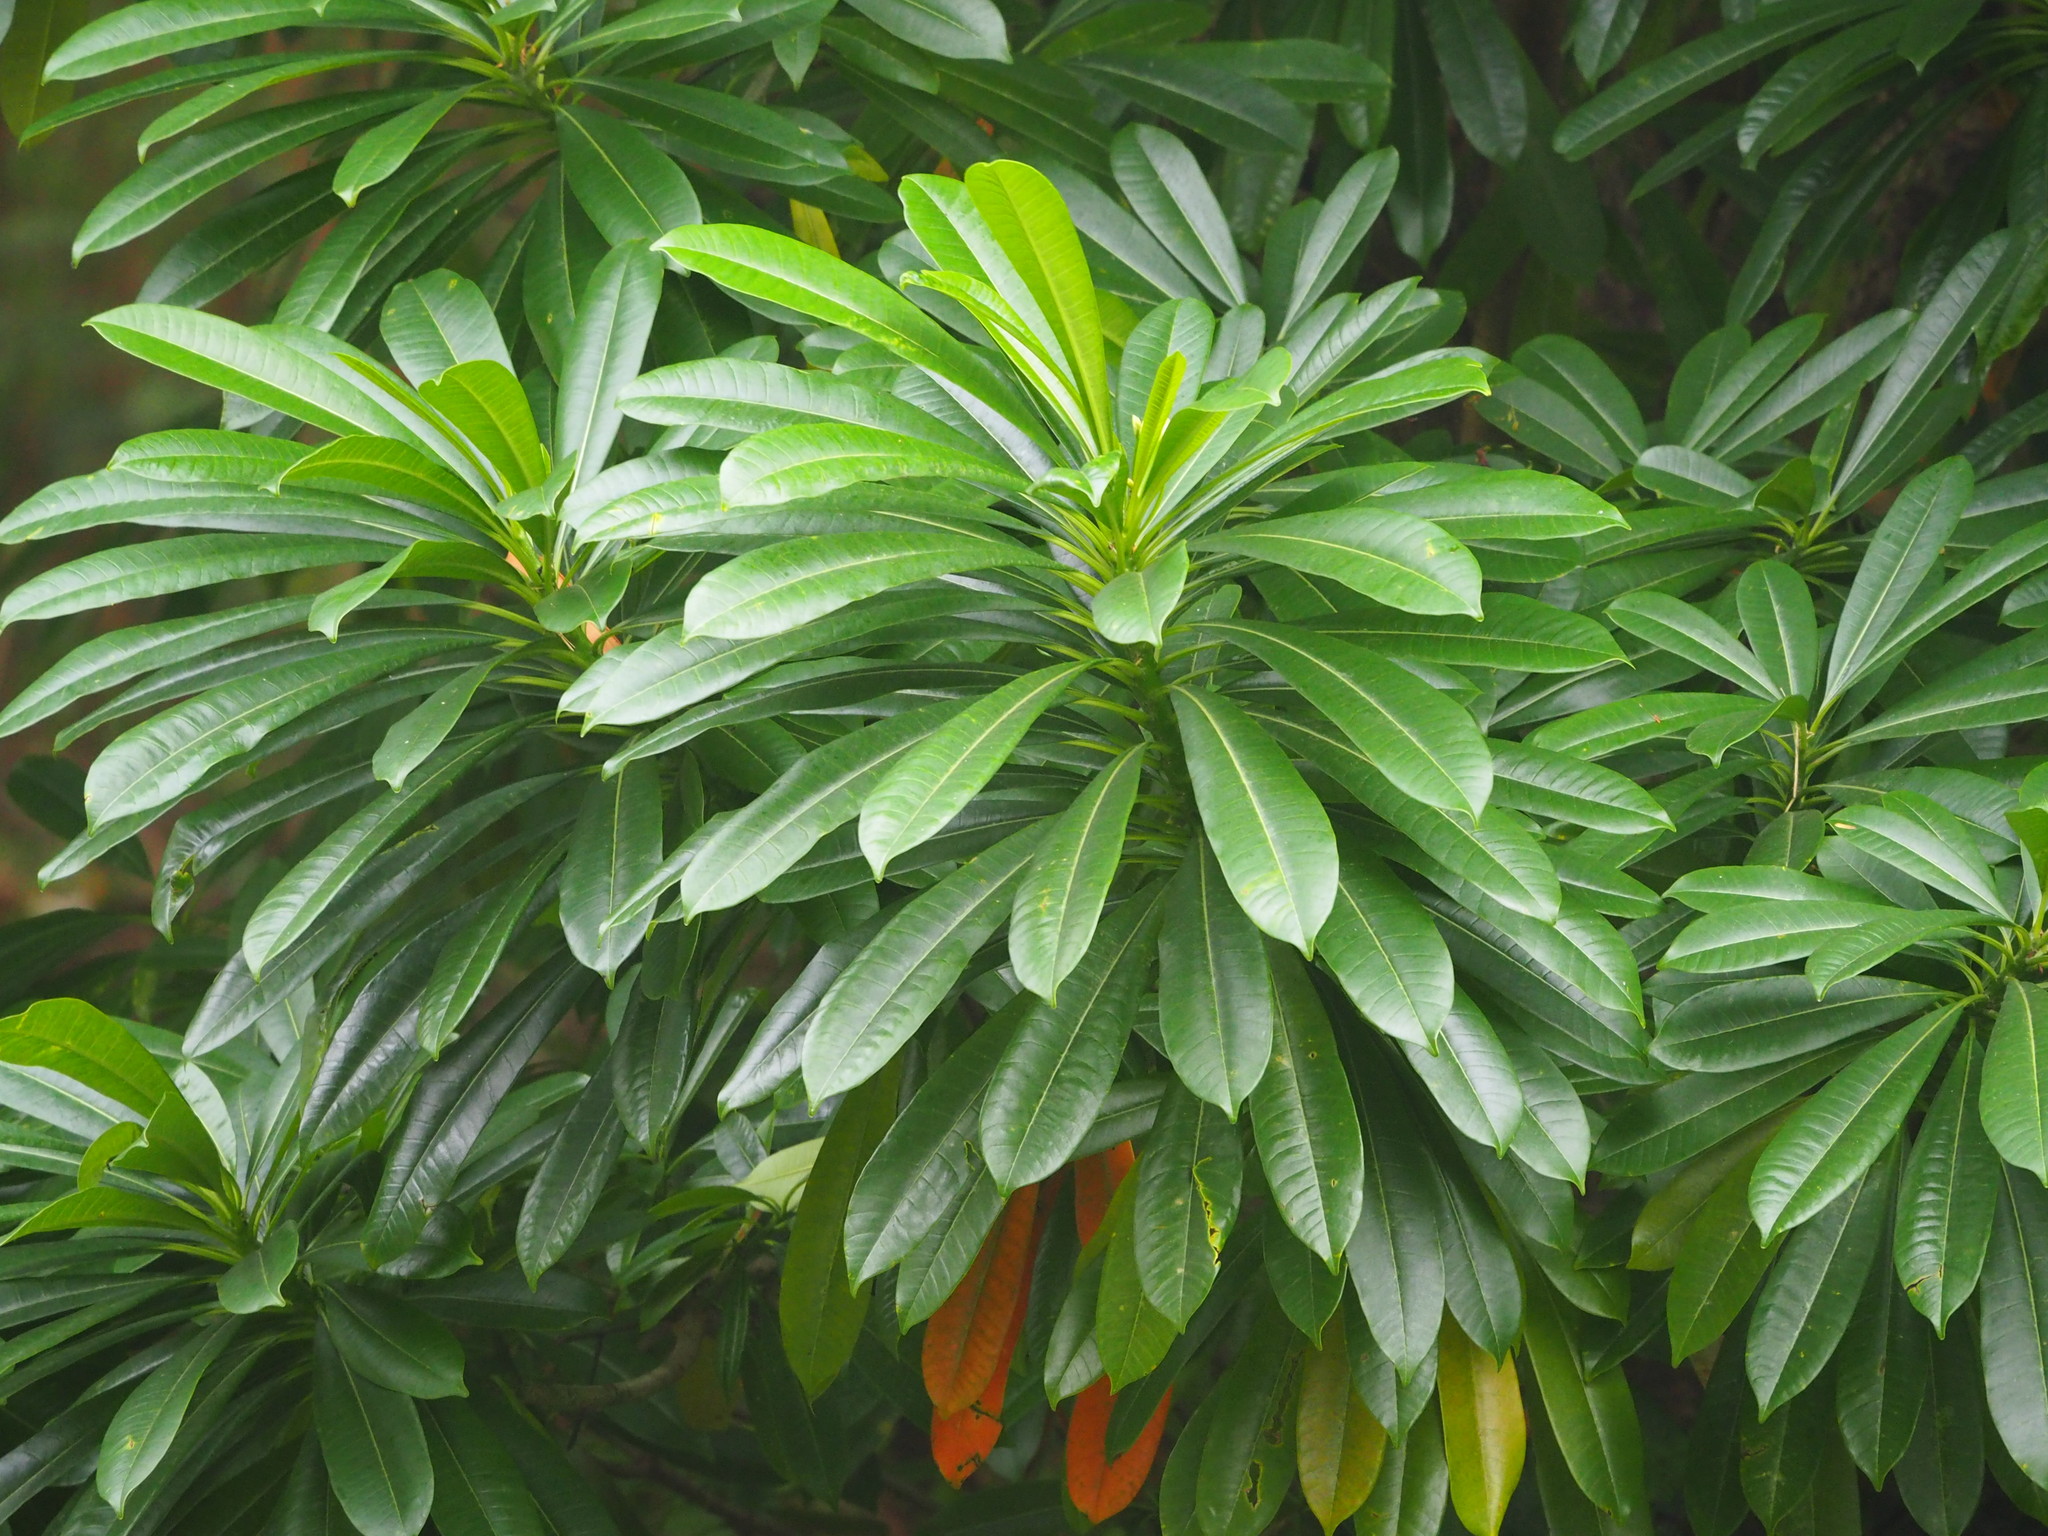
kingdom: Plantae
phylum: Tracheophyta
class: Magnoliopsida
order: Gentianales
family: Apocynaceae
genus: Cerbera
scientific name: Cerbera manghas
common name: Reva
